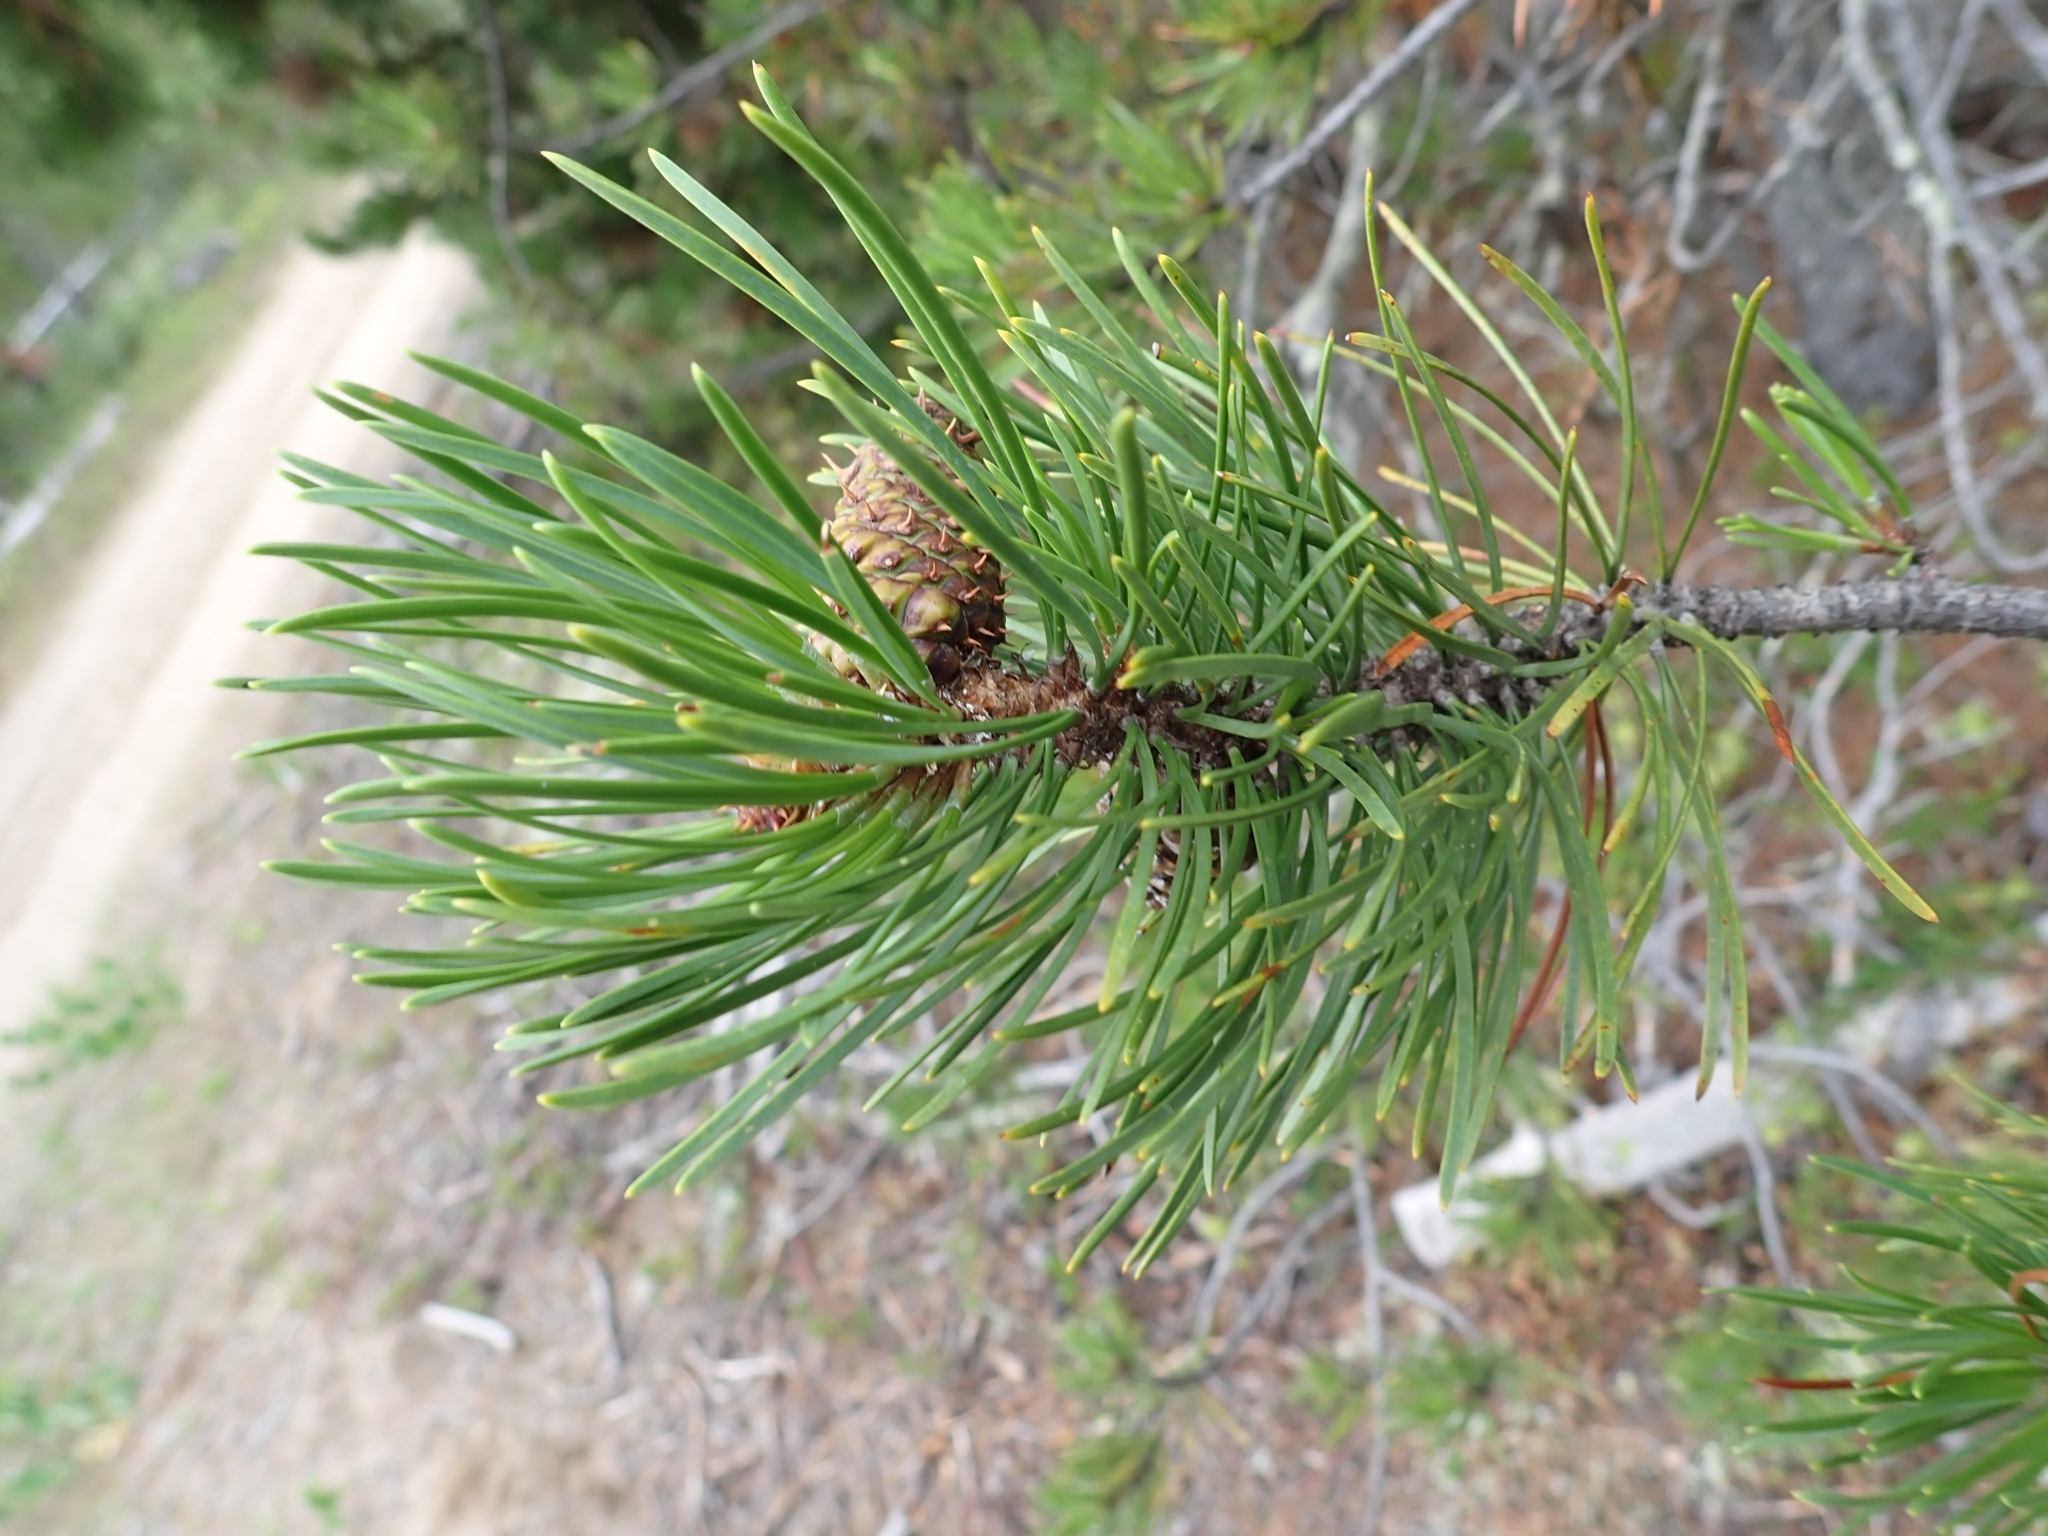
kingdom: Plantae
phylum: Tracheophyta
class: Pinopsida
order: Pinales
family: Pinaceae
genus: Pinus
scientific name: Pinus contorta
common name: Lodgepole pine
